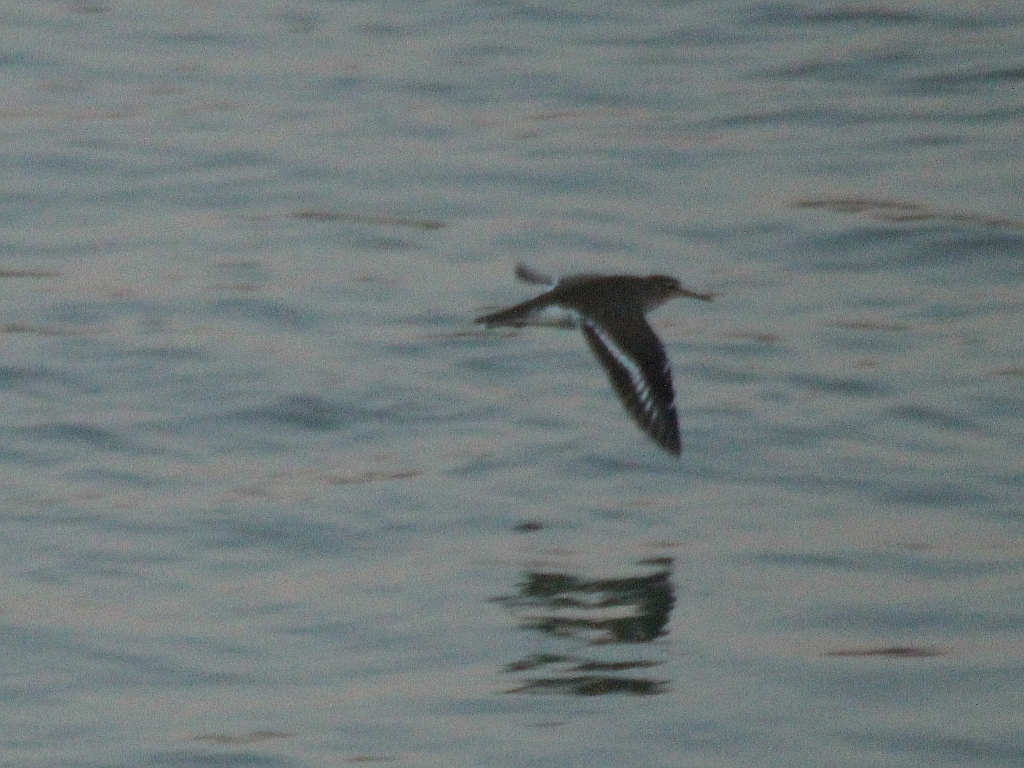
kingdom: Animalia
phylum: Chordata
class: Aves
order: Charadriiformes
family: Scolopacidae
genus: Actitis
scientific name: Actitis hypoleucos
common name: Common sandpiper
